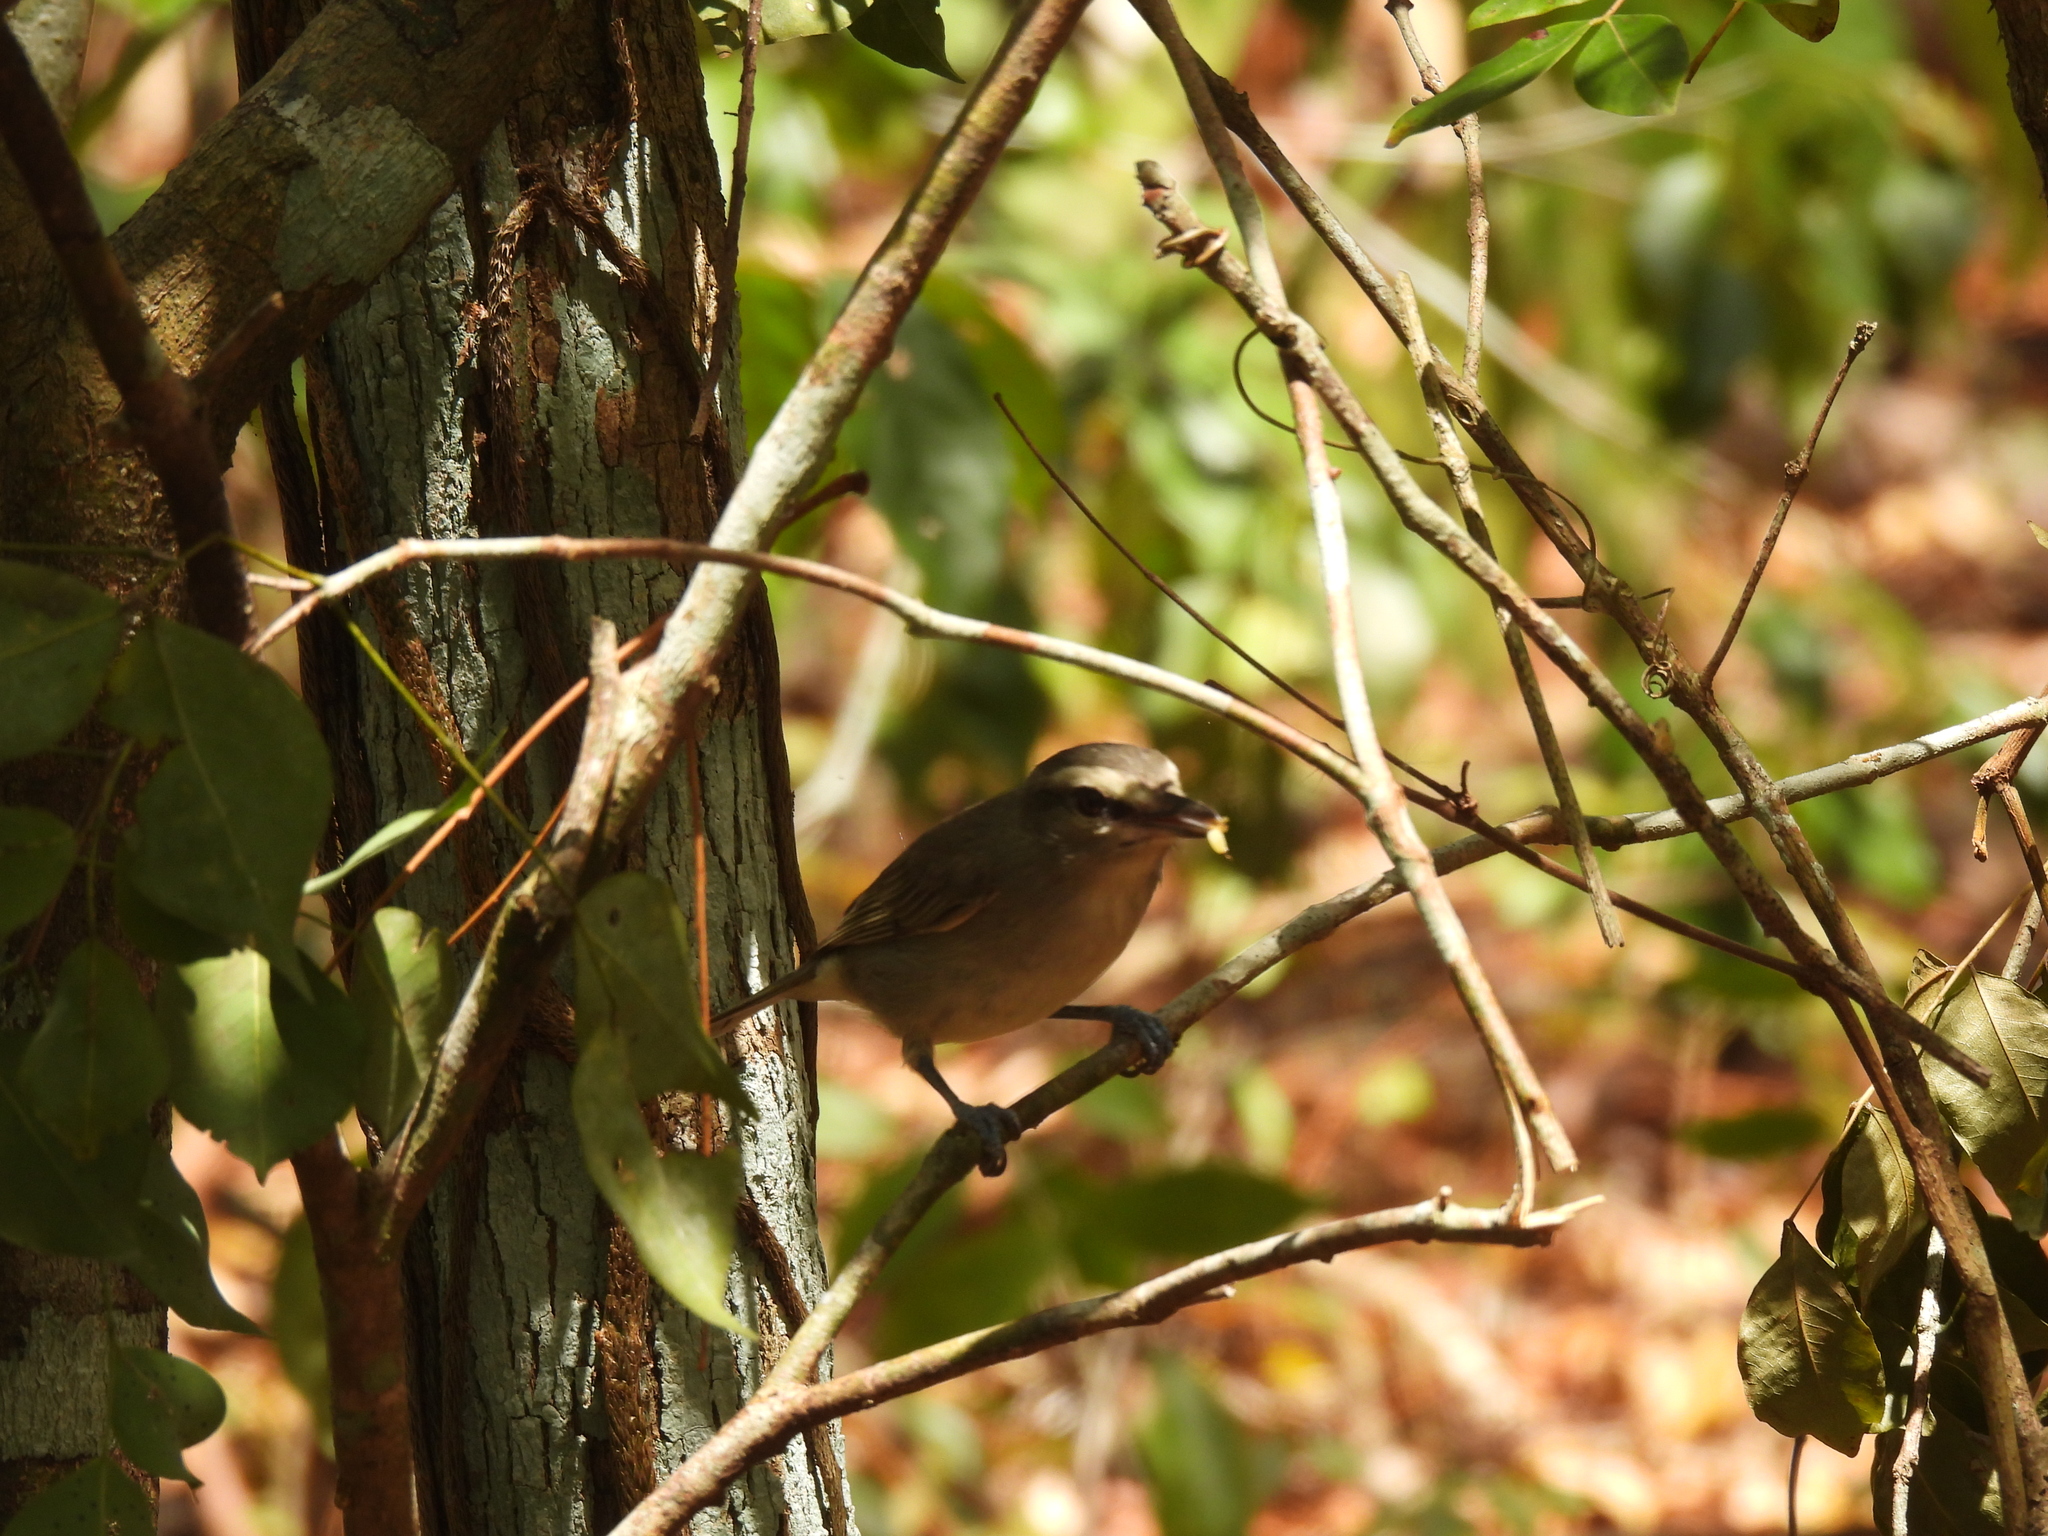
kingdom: Animalia
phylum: Chordata
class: Aves
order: Passeriformes
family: Vireonidae
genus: Vireo
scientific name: Vireo magister
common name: Yucatan vireo
